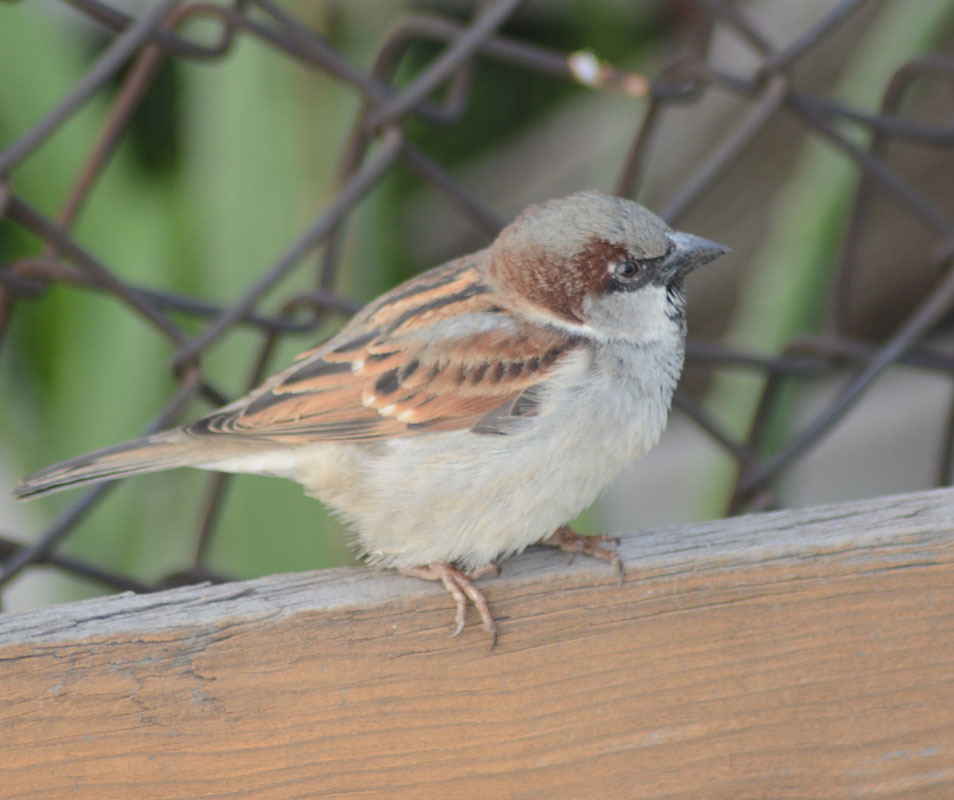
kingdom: Animalia
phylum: Chordata
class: Aves
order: Passeriformes
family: Passeridae
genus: Passer
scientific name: Passer domesticus
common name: House sparrow
